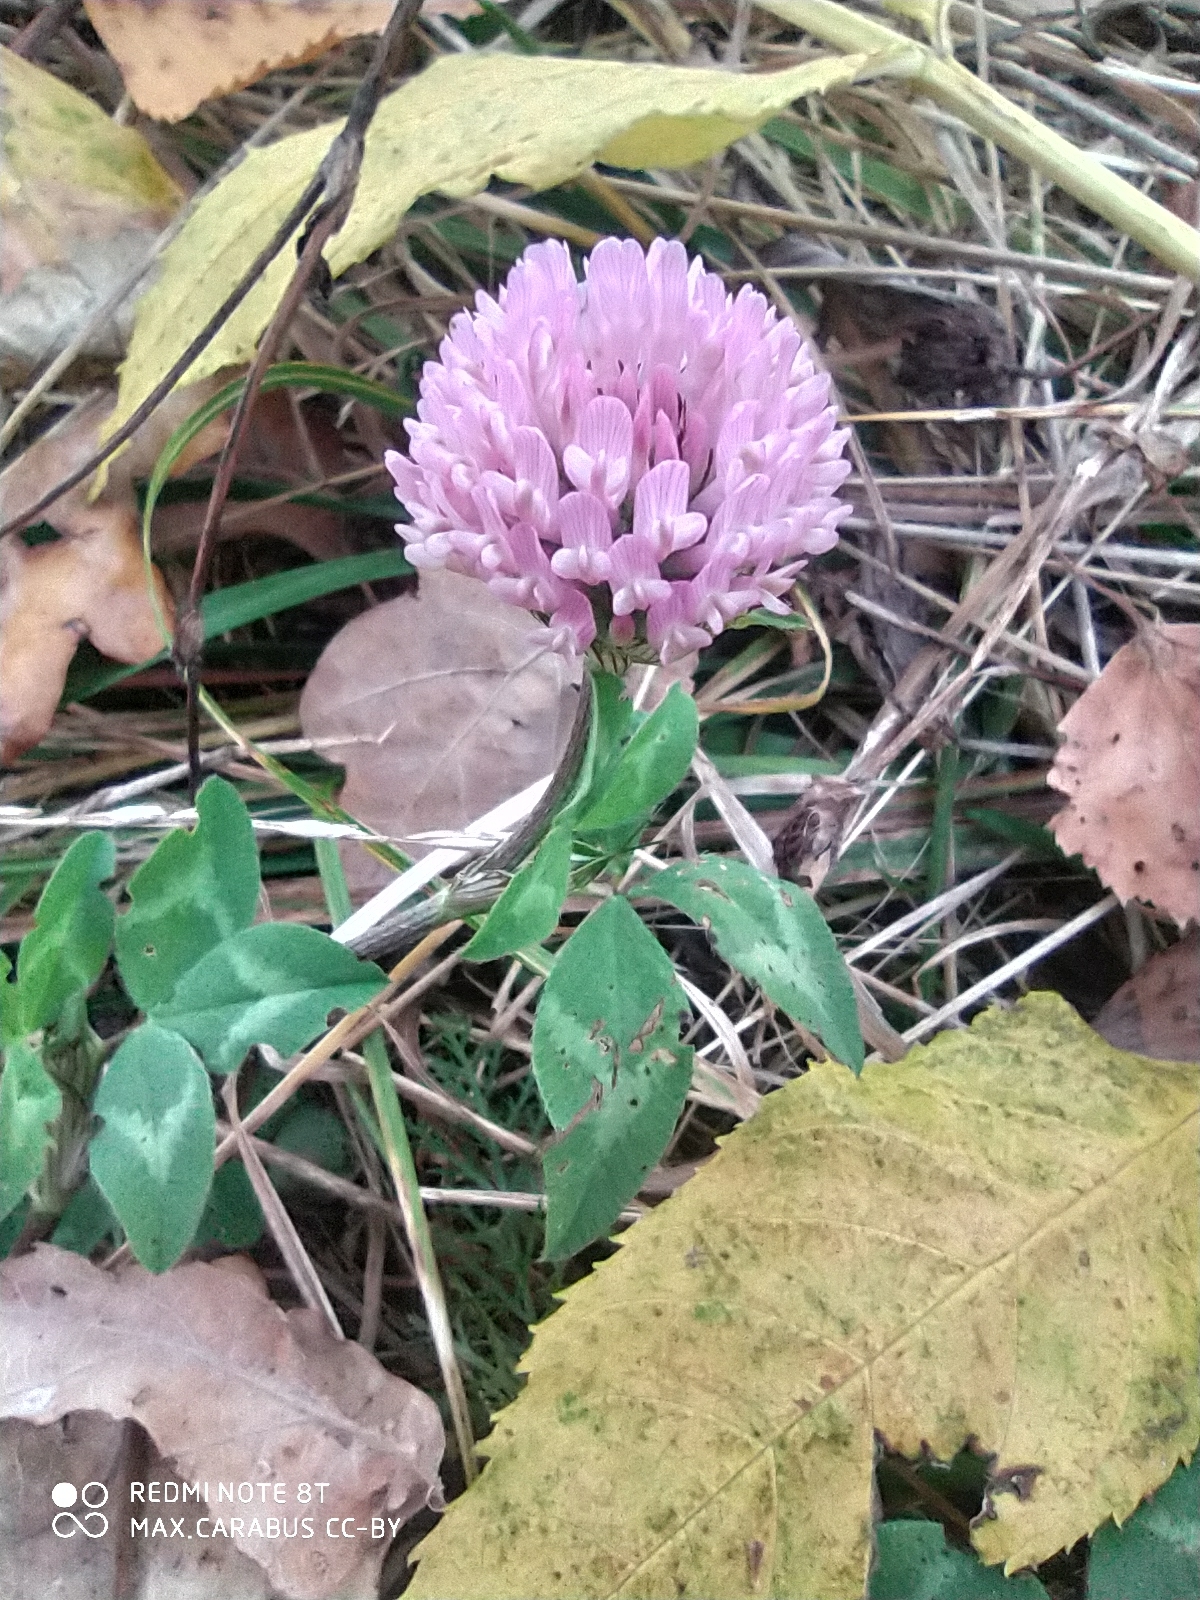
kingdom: Plantae
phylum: Tracheophyta
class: Magnoliopsida
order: Fabales
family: Fabaceae
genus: Trifolium
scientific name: Trifolium pratense
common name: Red clover
